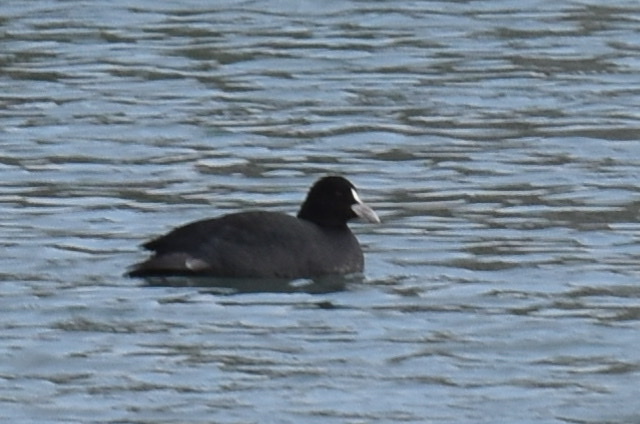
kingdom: Animalia
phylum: Chordata
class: Aves
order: Gruiformes
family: Rallidae
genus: Fulica
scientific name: Fulica atra
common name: Eurasian coot
